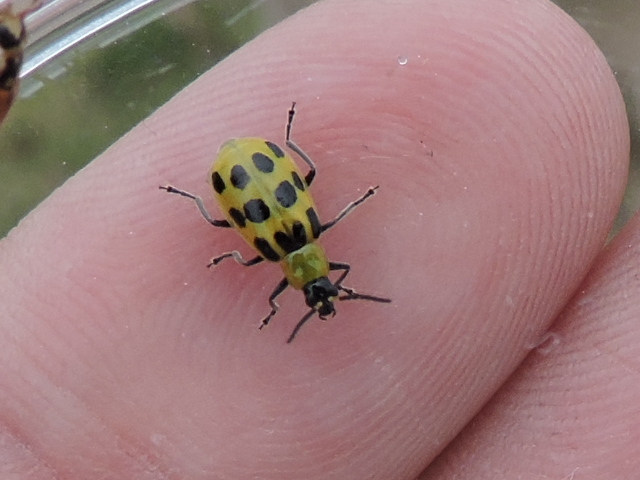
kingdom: Animalia
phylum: Arthropoda
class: Insecta
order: Coleoptera
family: Chrysomelidae
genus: Diabrotica
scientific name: Diabrotica undecimpunctata
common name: Spotted cucumber beetle
